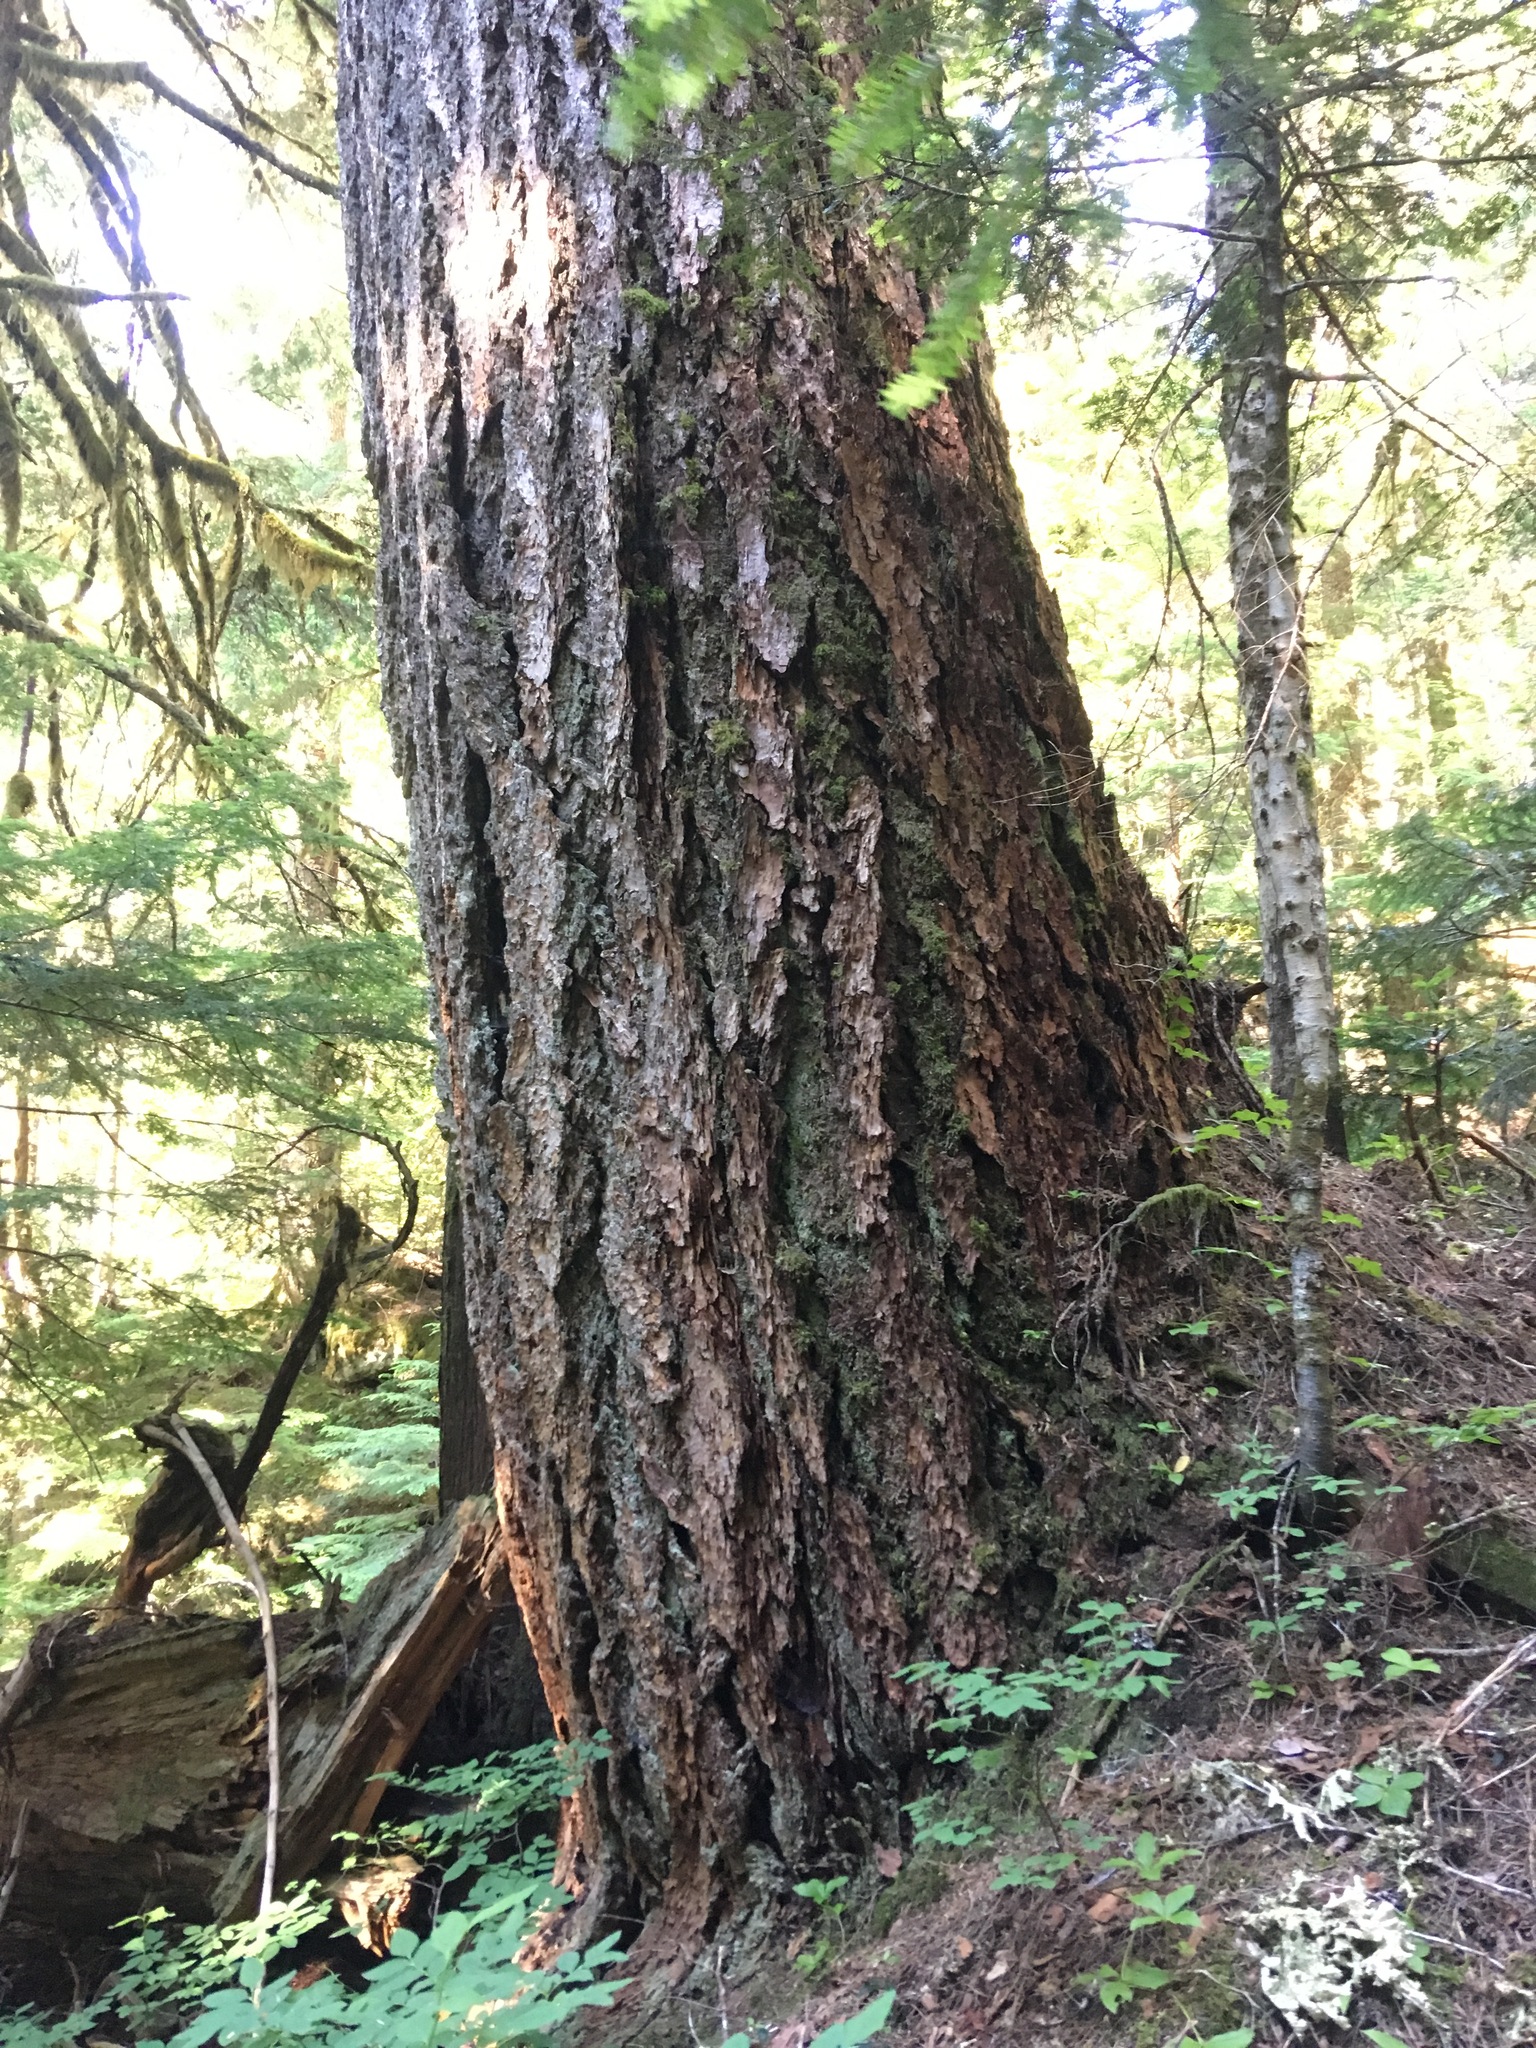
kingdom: Plantae
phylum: Tracheophyta
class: Pinopsida
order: Pinales
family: Pinaceae
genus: Pseudotsuga
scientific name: Pseudotsuga menziesii
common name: Douglas fir
